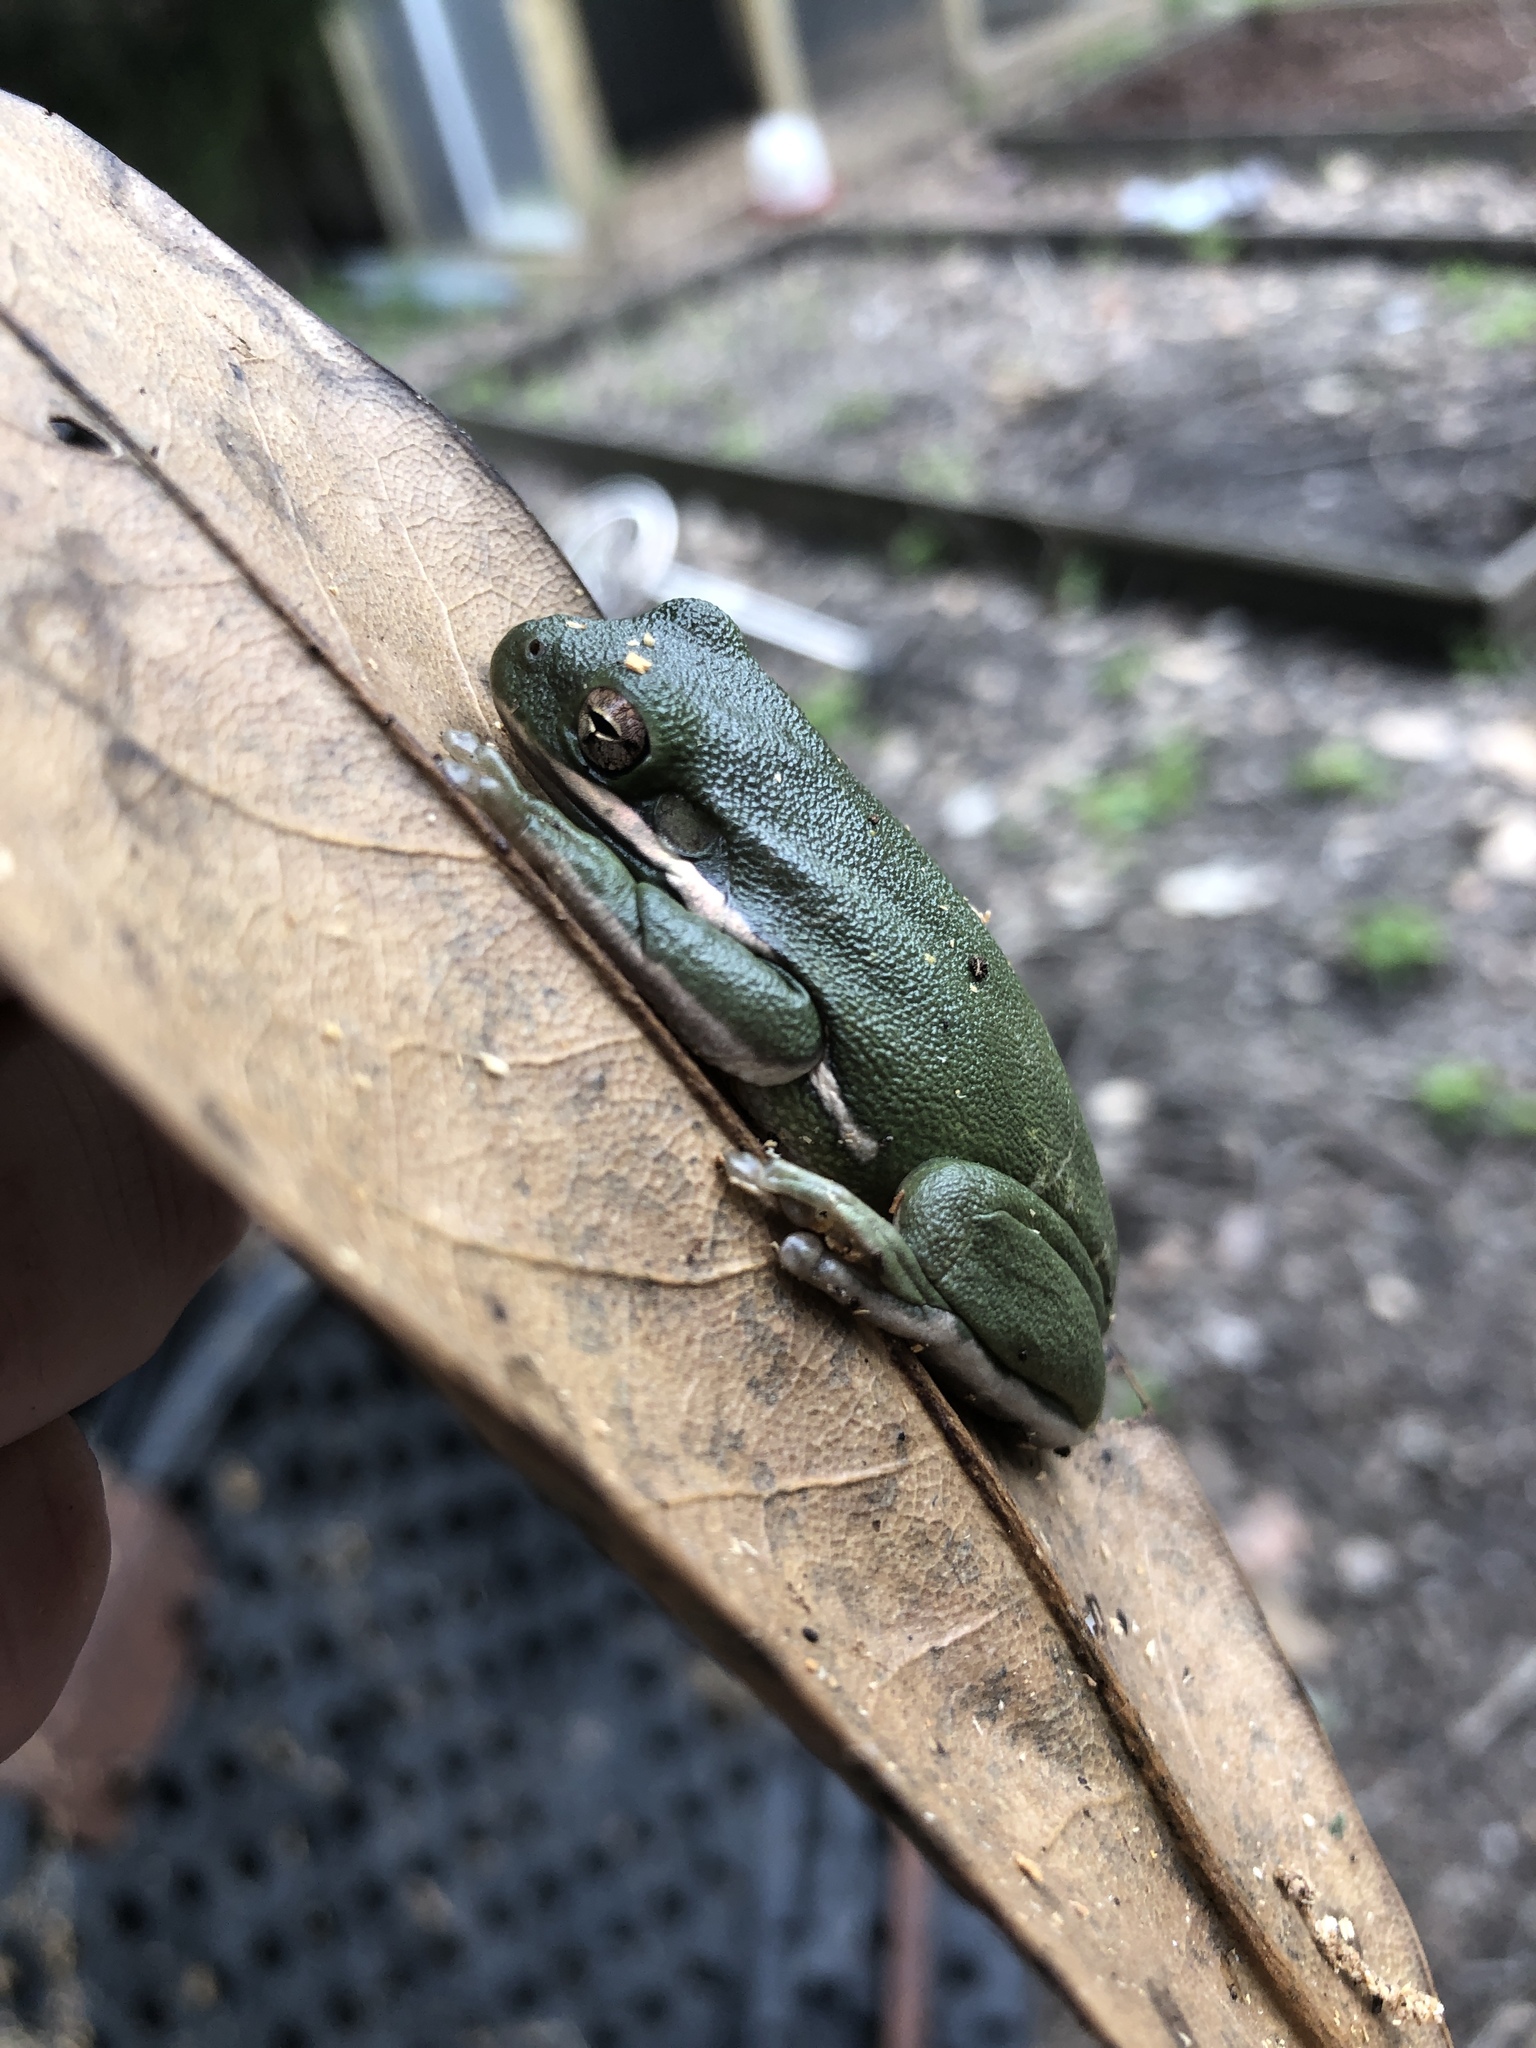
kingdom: Animalia
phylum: Chordata
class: Amphibia
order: Anura
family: Hylidae
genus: Dryophytes
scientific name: Dryophytes cinereus
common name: Green treefrog
